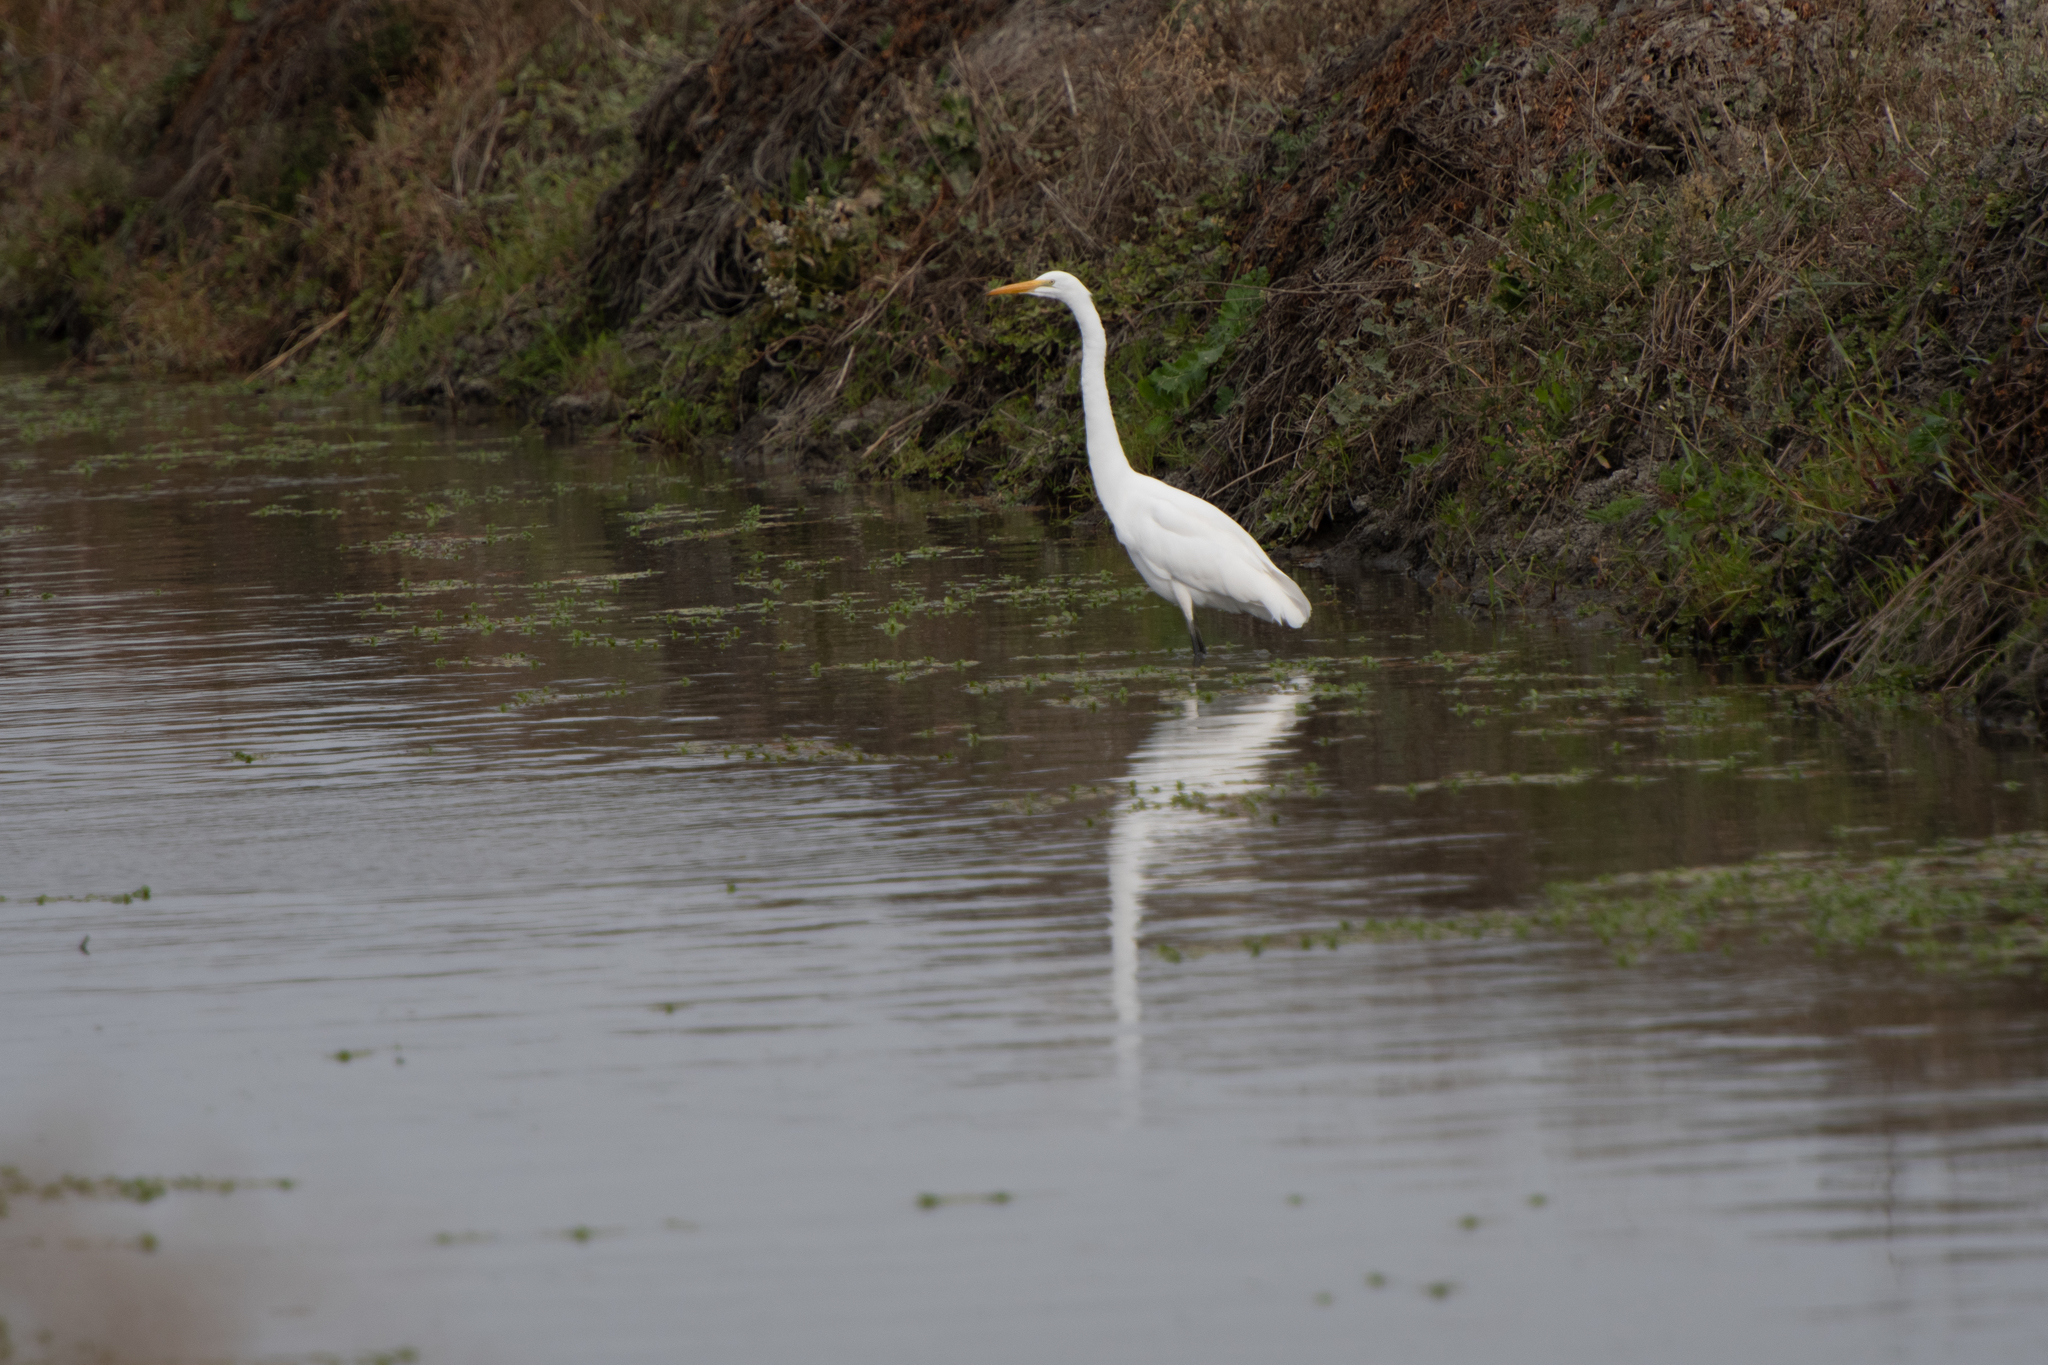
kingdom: Animalia
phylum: Chordata
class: Aves
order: Pelecaniformes
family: Ardeidae
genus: Ardea
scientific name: Ardea alba
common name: Great egret
